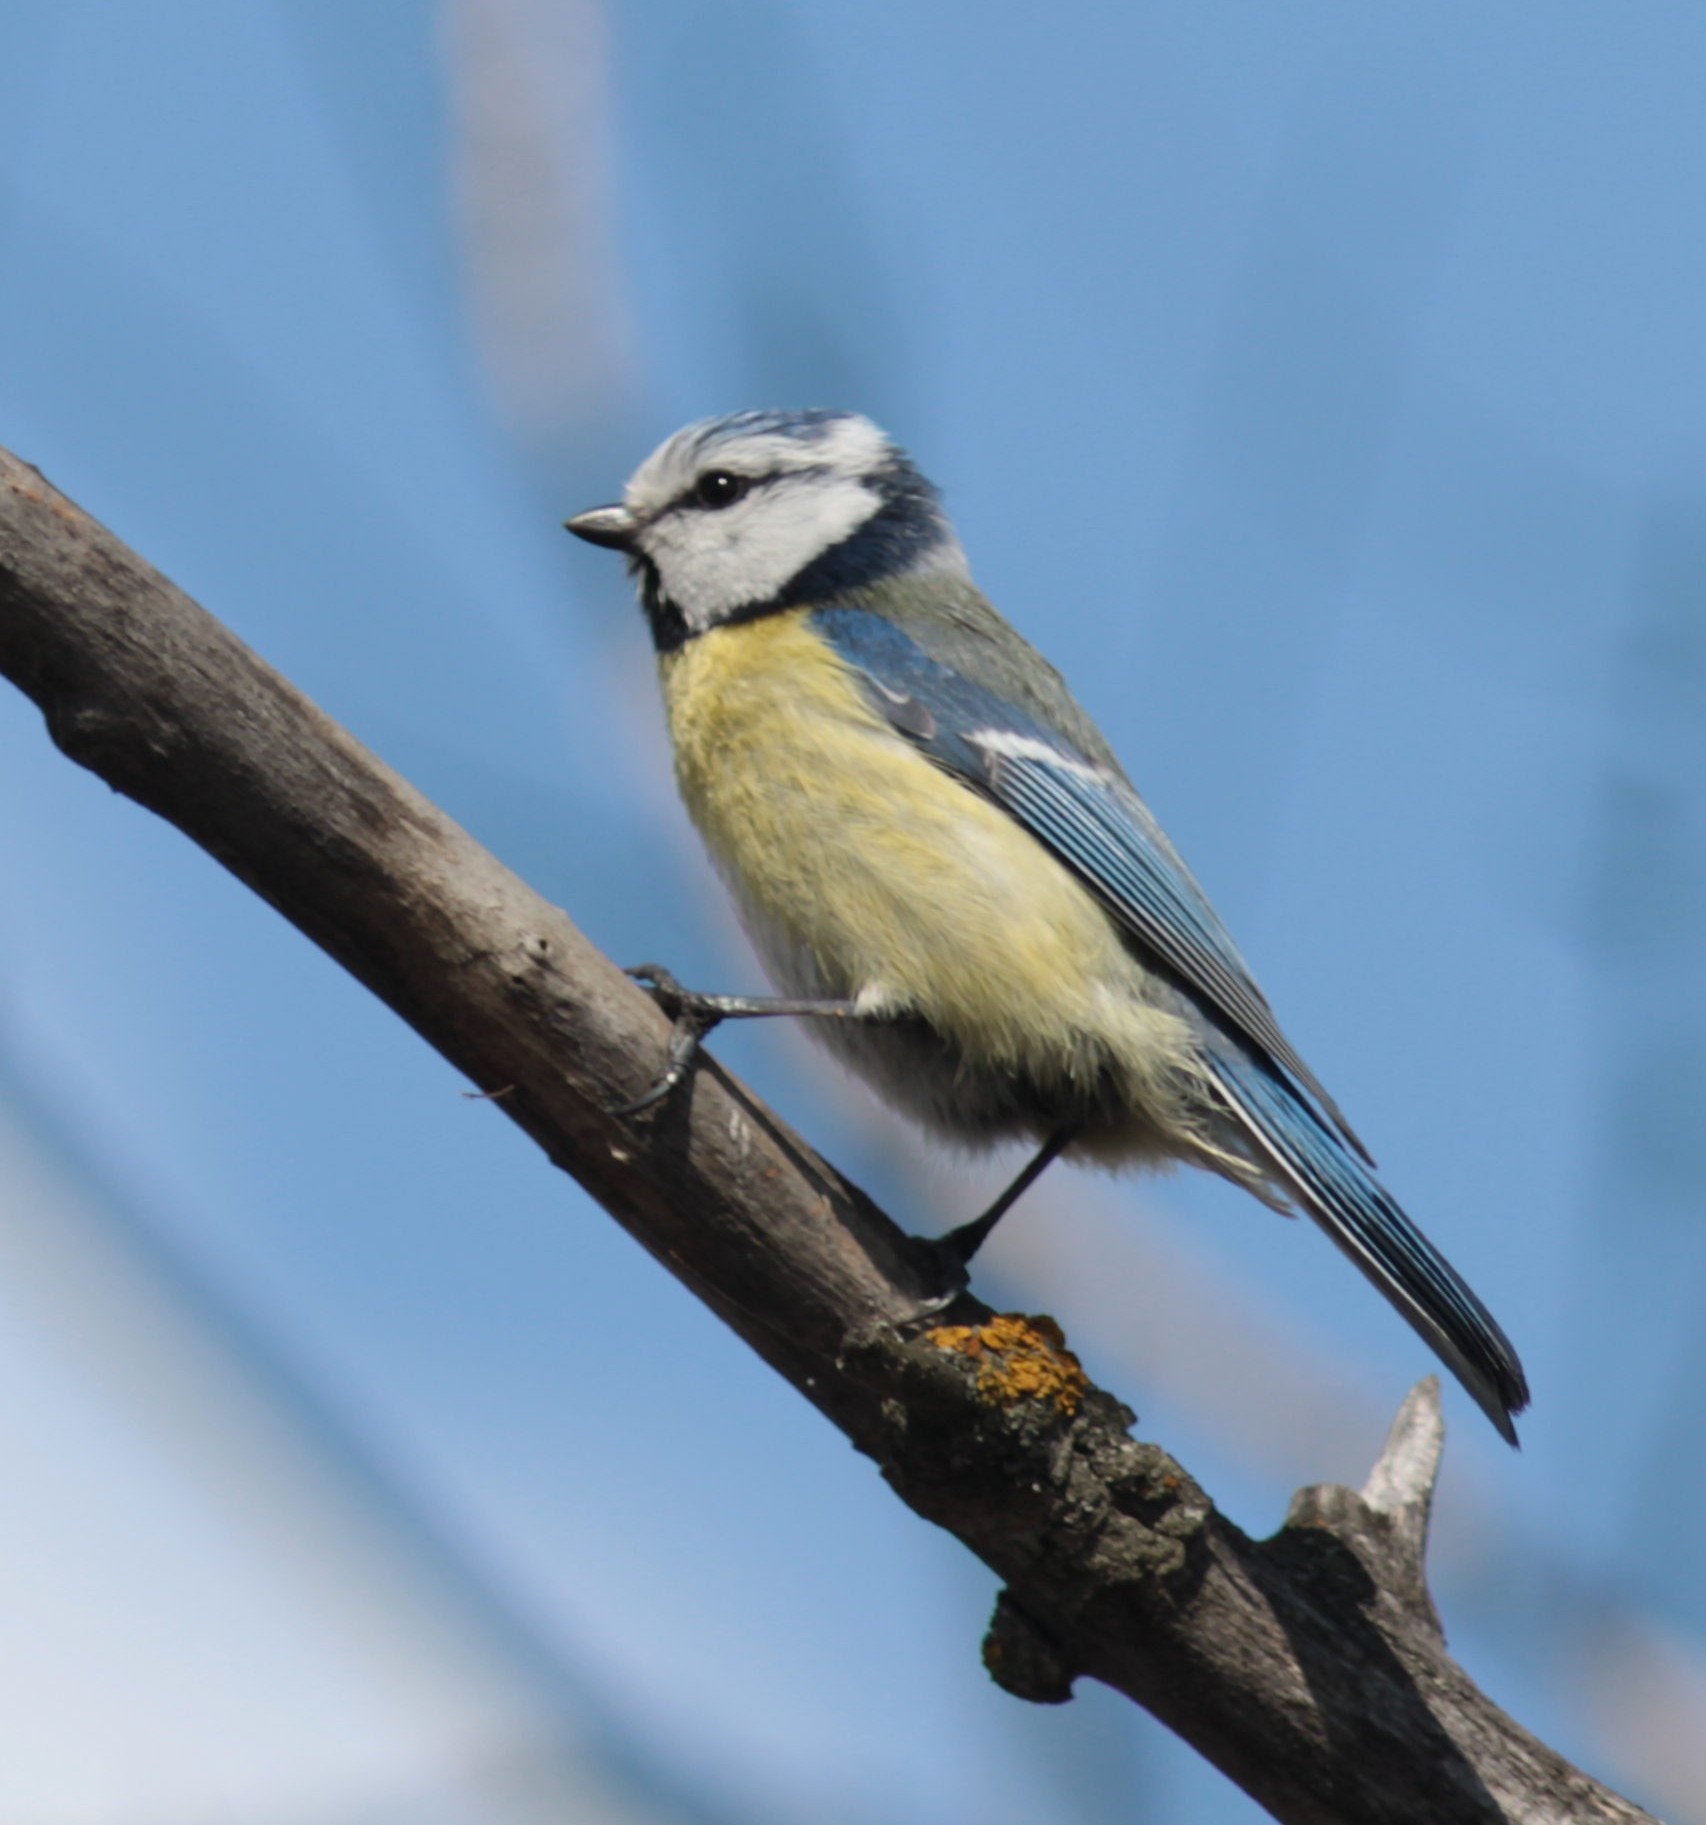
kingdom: Animalia
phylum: Chordata
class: Aves
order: Passeriformes
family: Paridae
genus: Cyanistes
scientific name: Cyanistes caeruleus
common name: Eurasian blue tit
